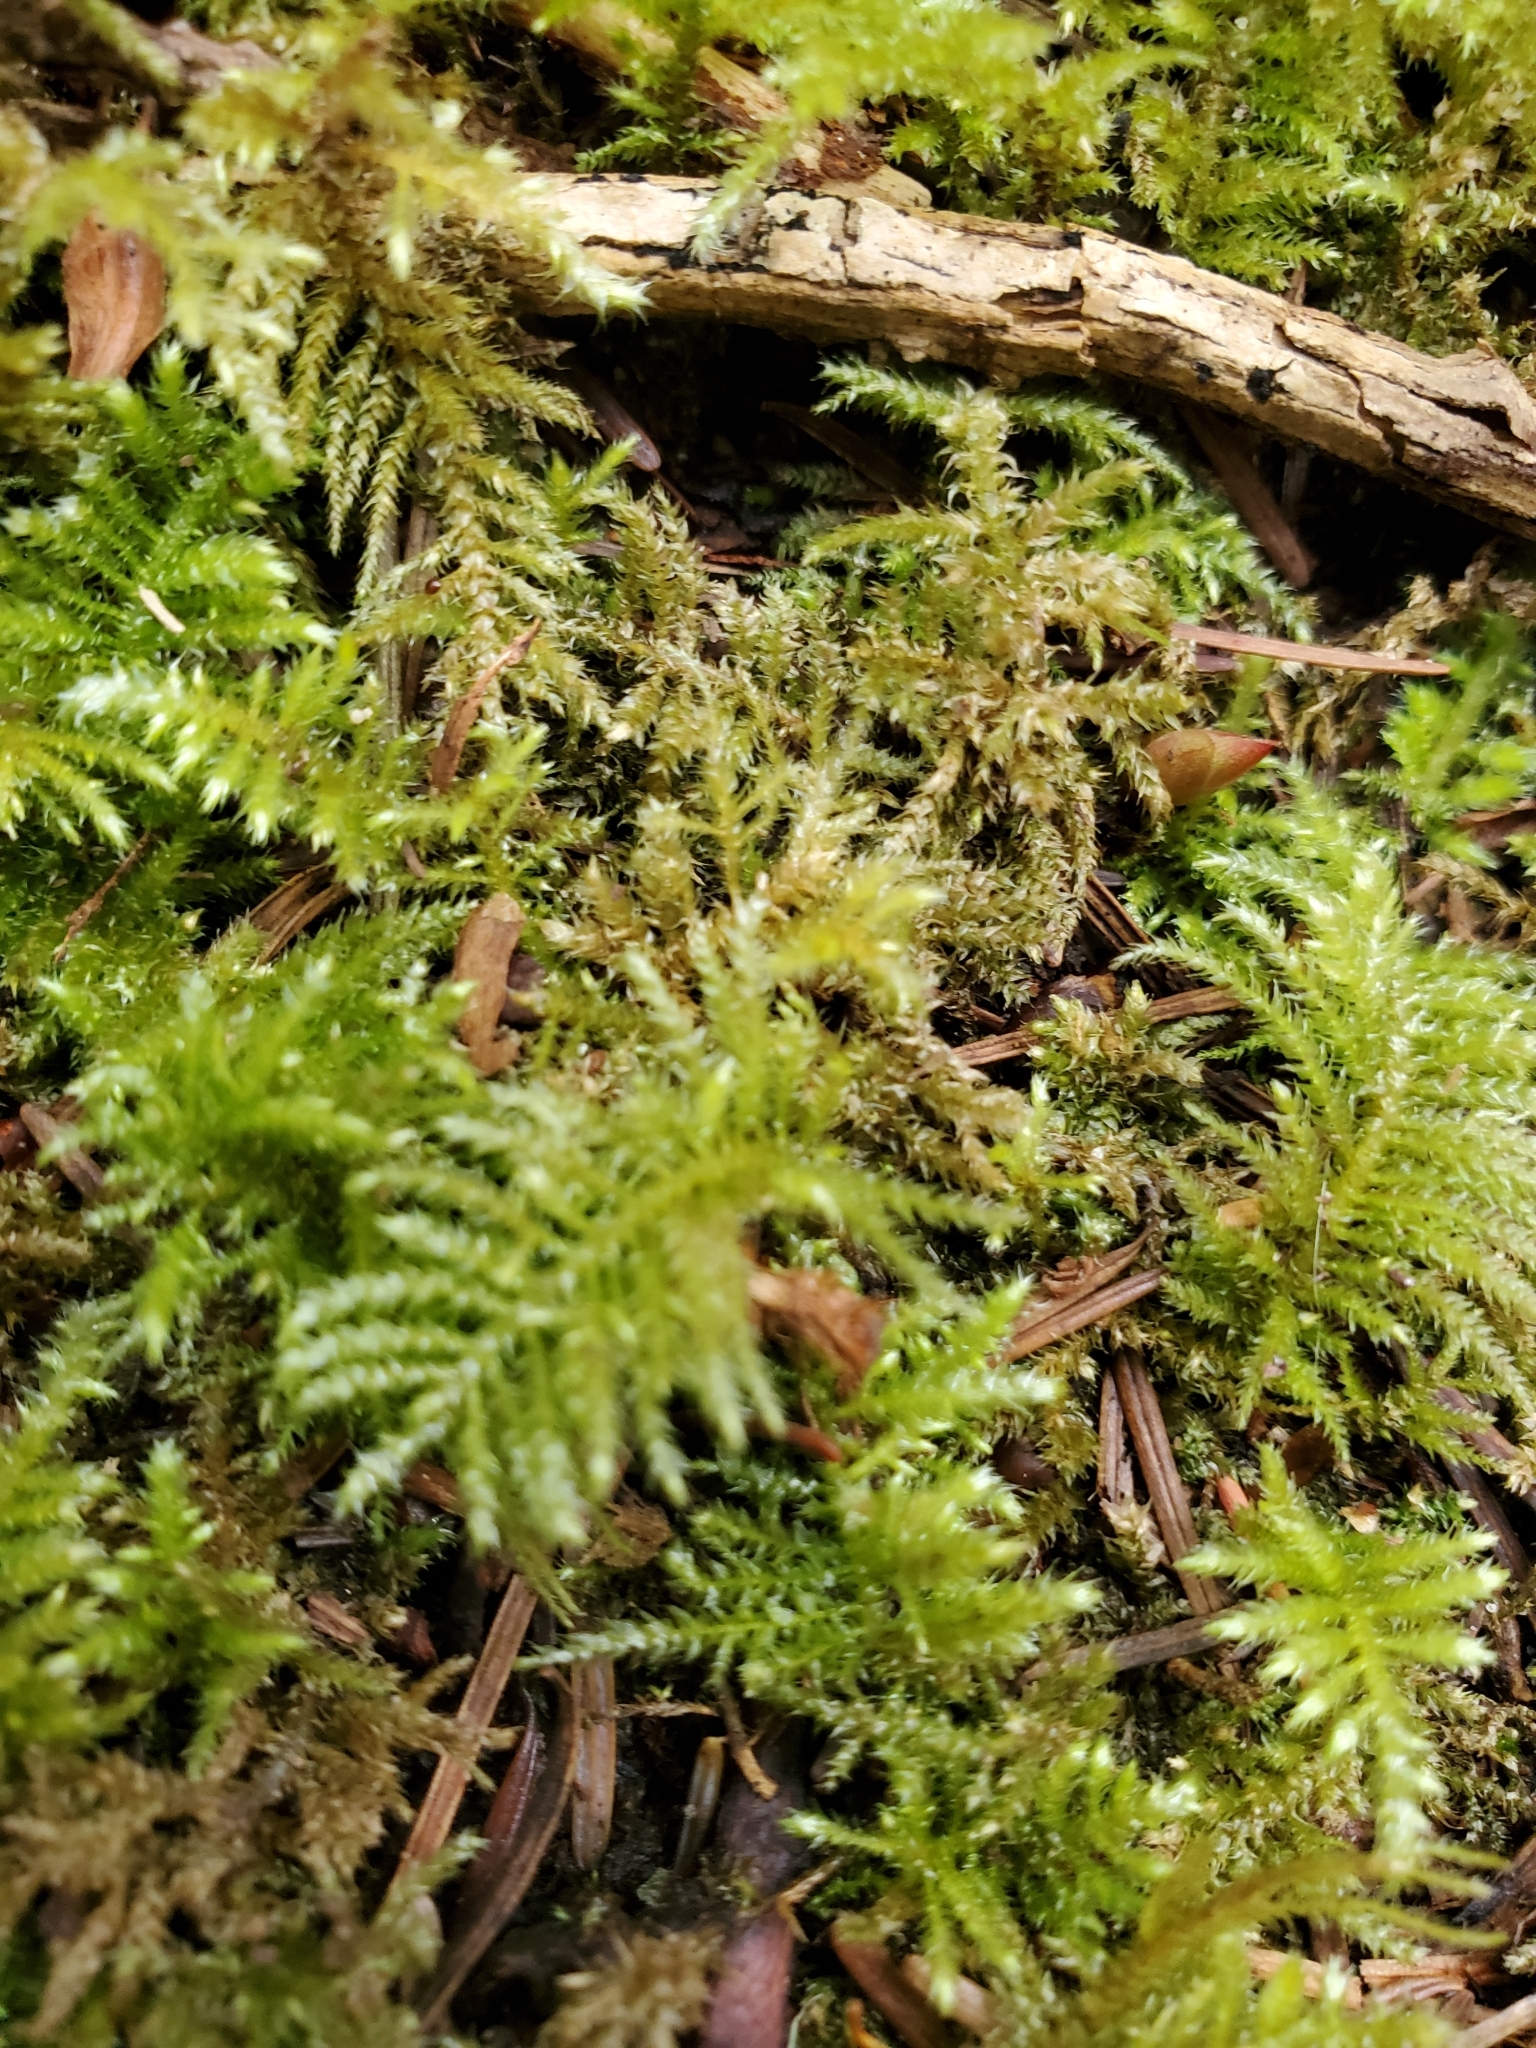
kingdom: Plantae
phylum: Bryophyta
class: Bryopsida
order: Hypnales
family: Brachytheciaceae
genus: Kindbergia
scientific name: Kindbergia oregana
